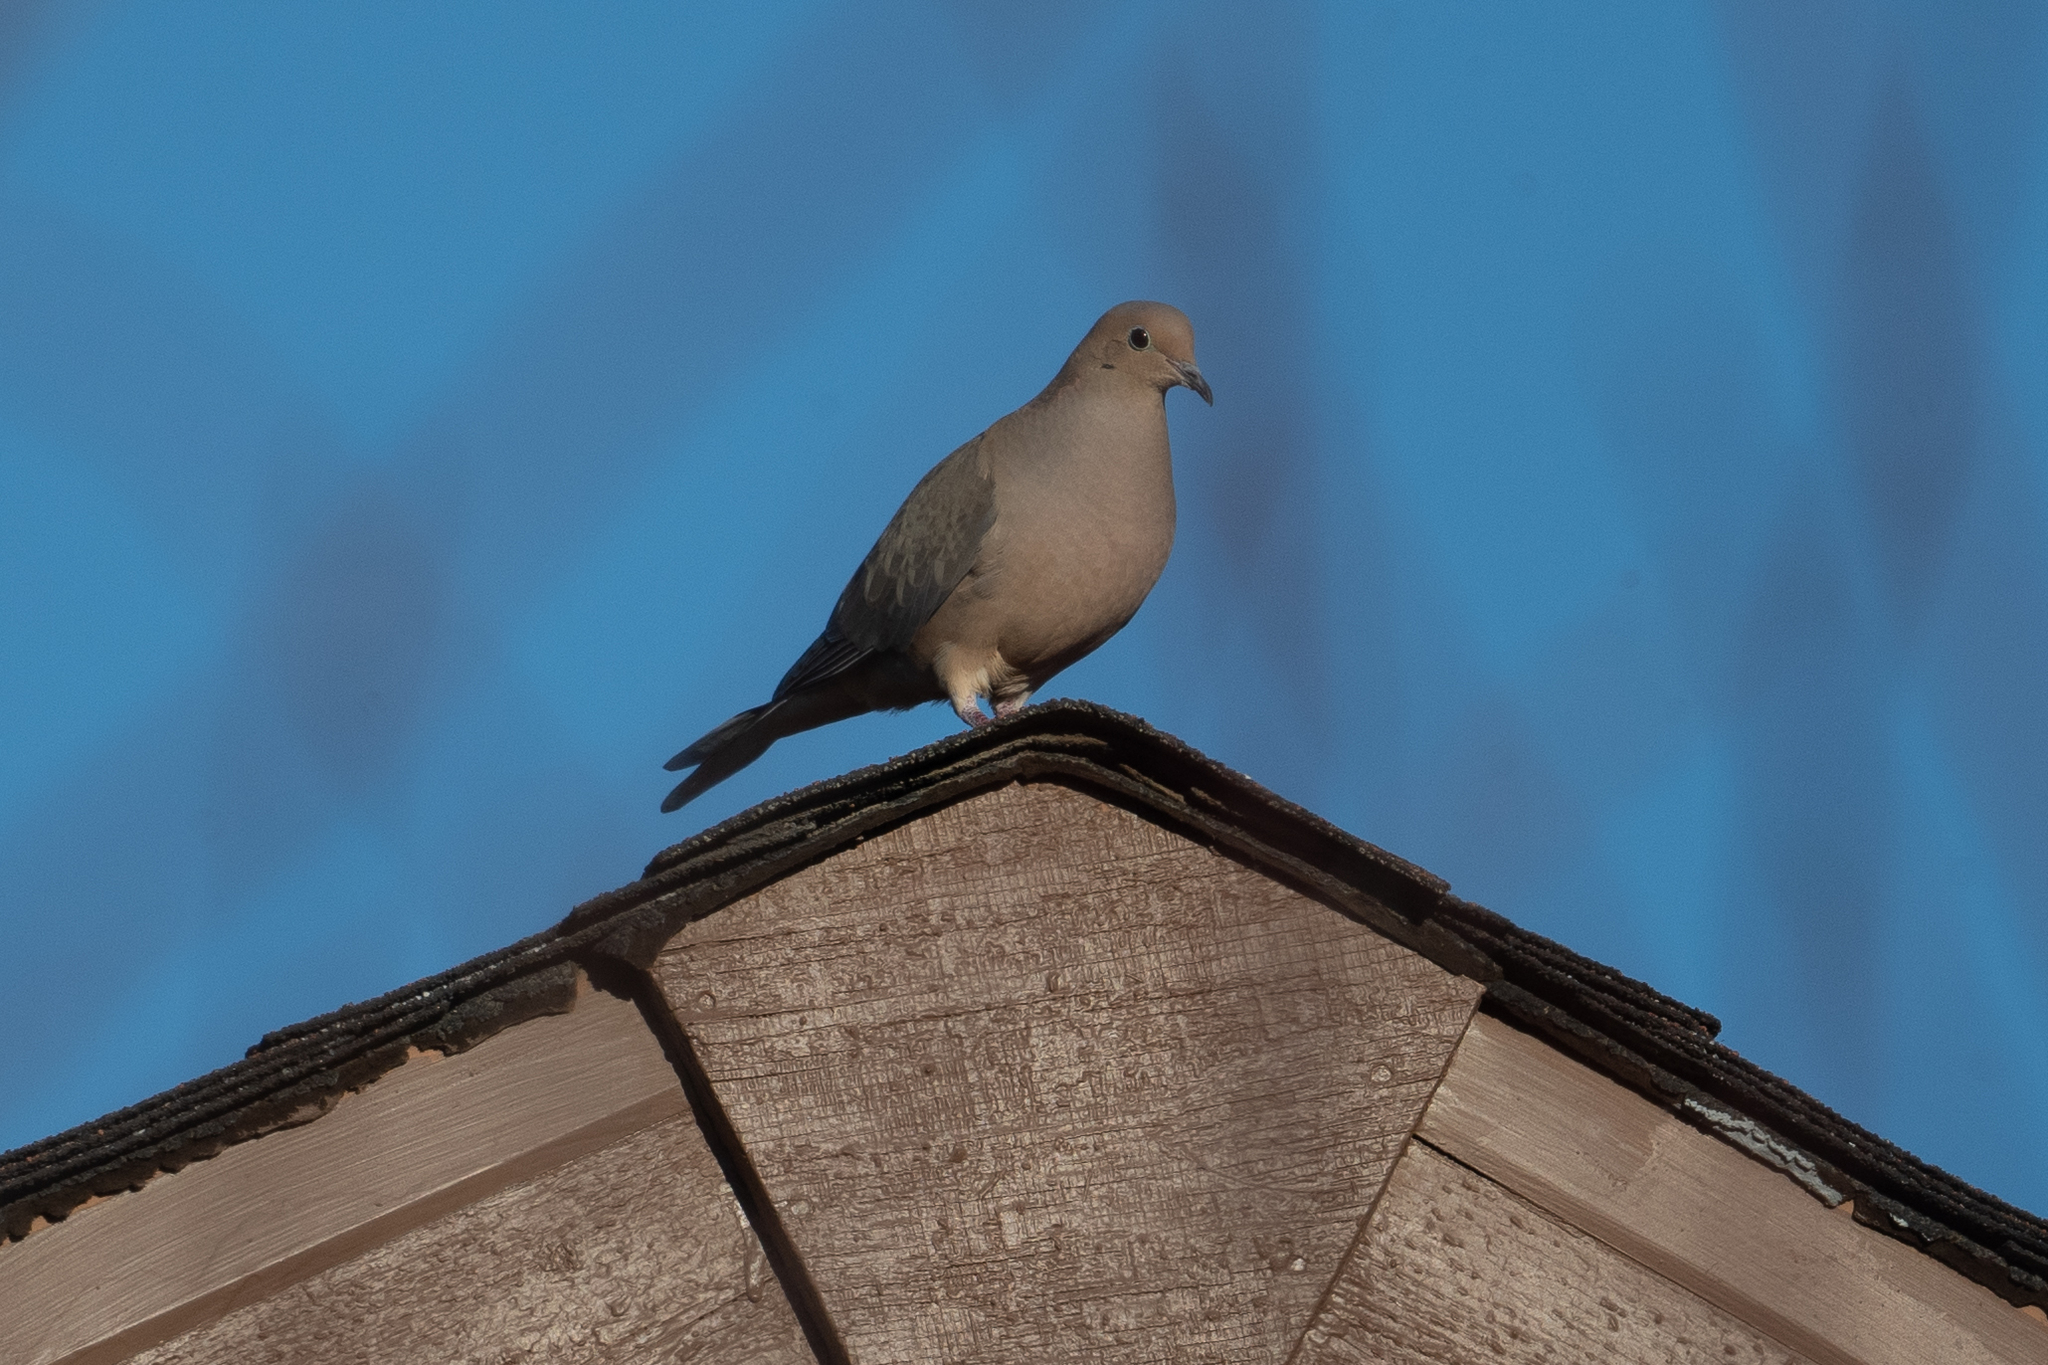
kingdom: Animalia
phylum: Chordata
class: Aves
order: Columbiformes
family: Columbidae
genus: Zenaida
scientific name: Zenaida macroura
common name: Mourning dove
